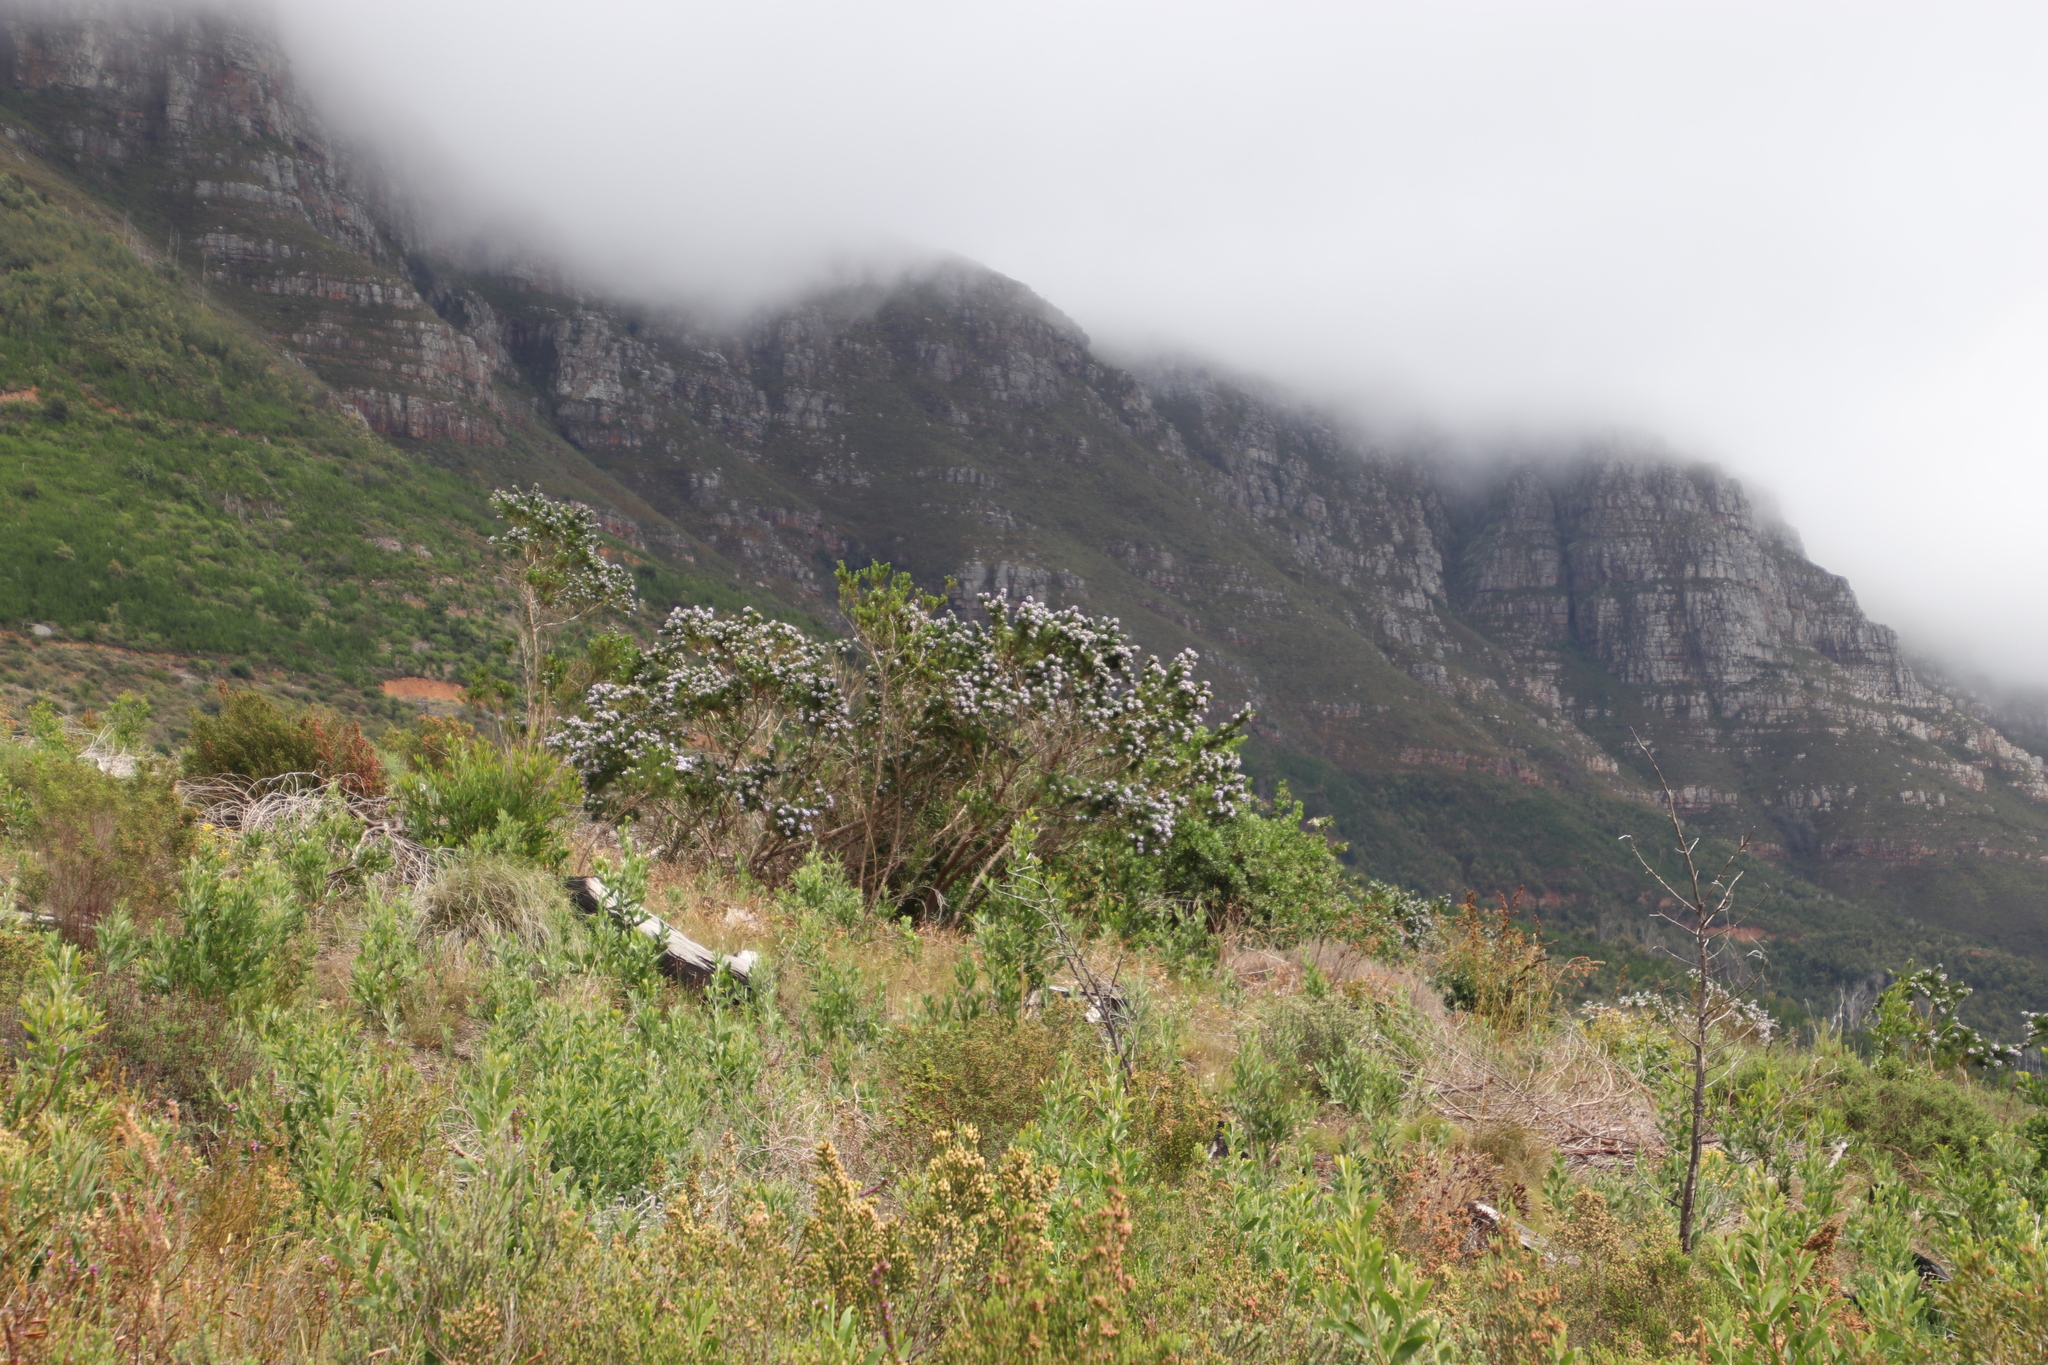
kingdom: Plantae
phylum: Tracheophyta
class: Magnoliopsida
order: Fabales
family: Fabaceae
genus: Psoralea
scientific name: Psoralea pinnata
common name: African scurfpea
